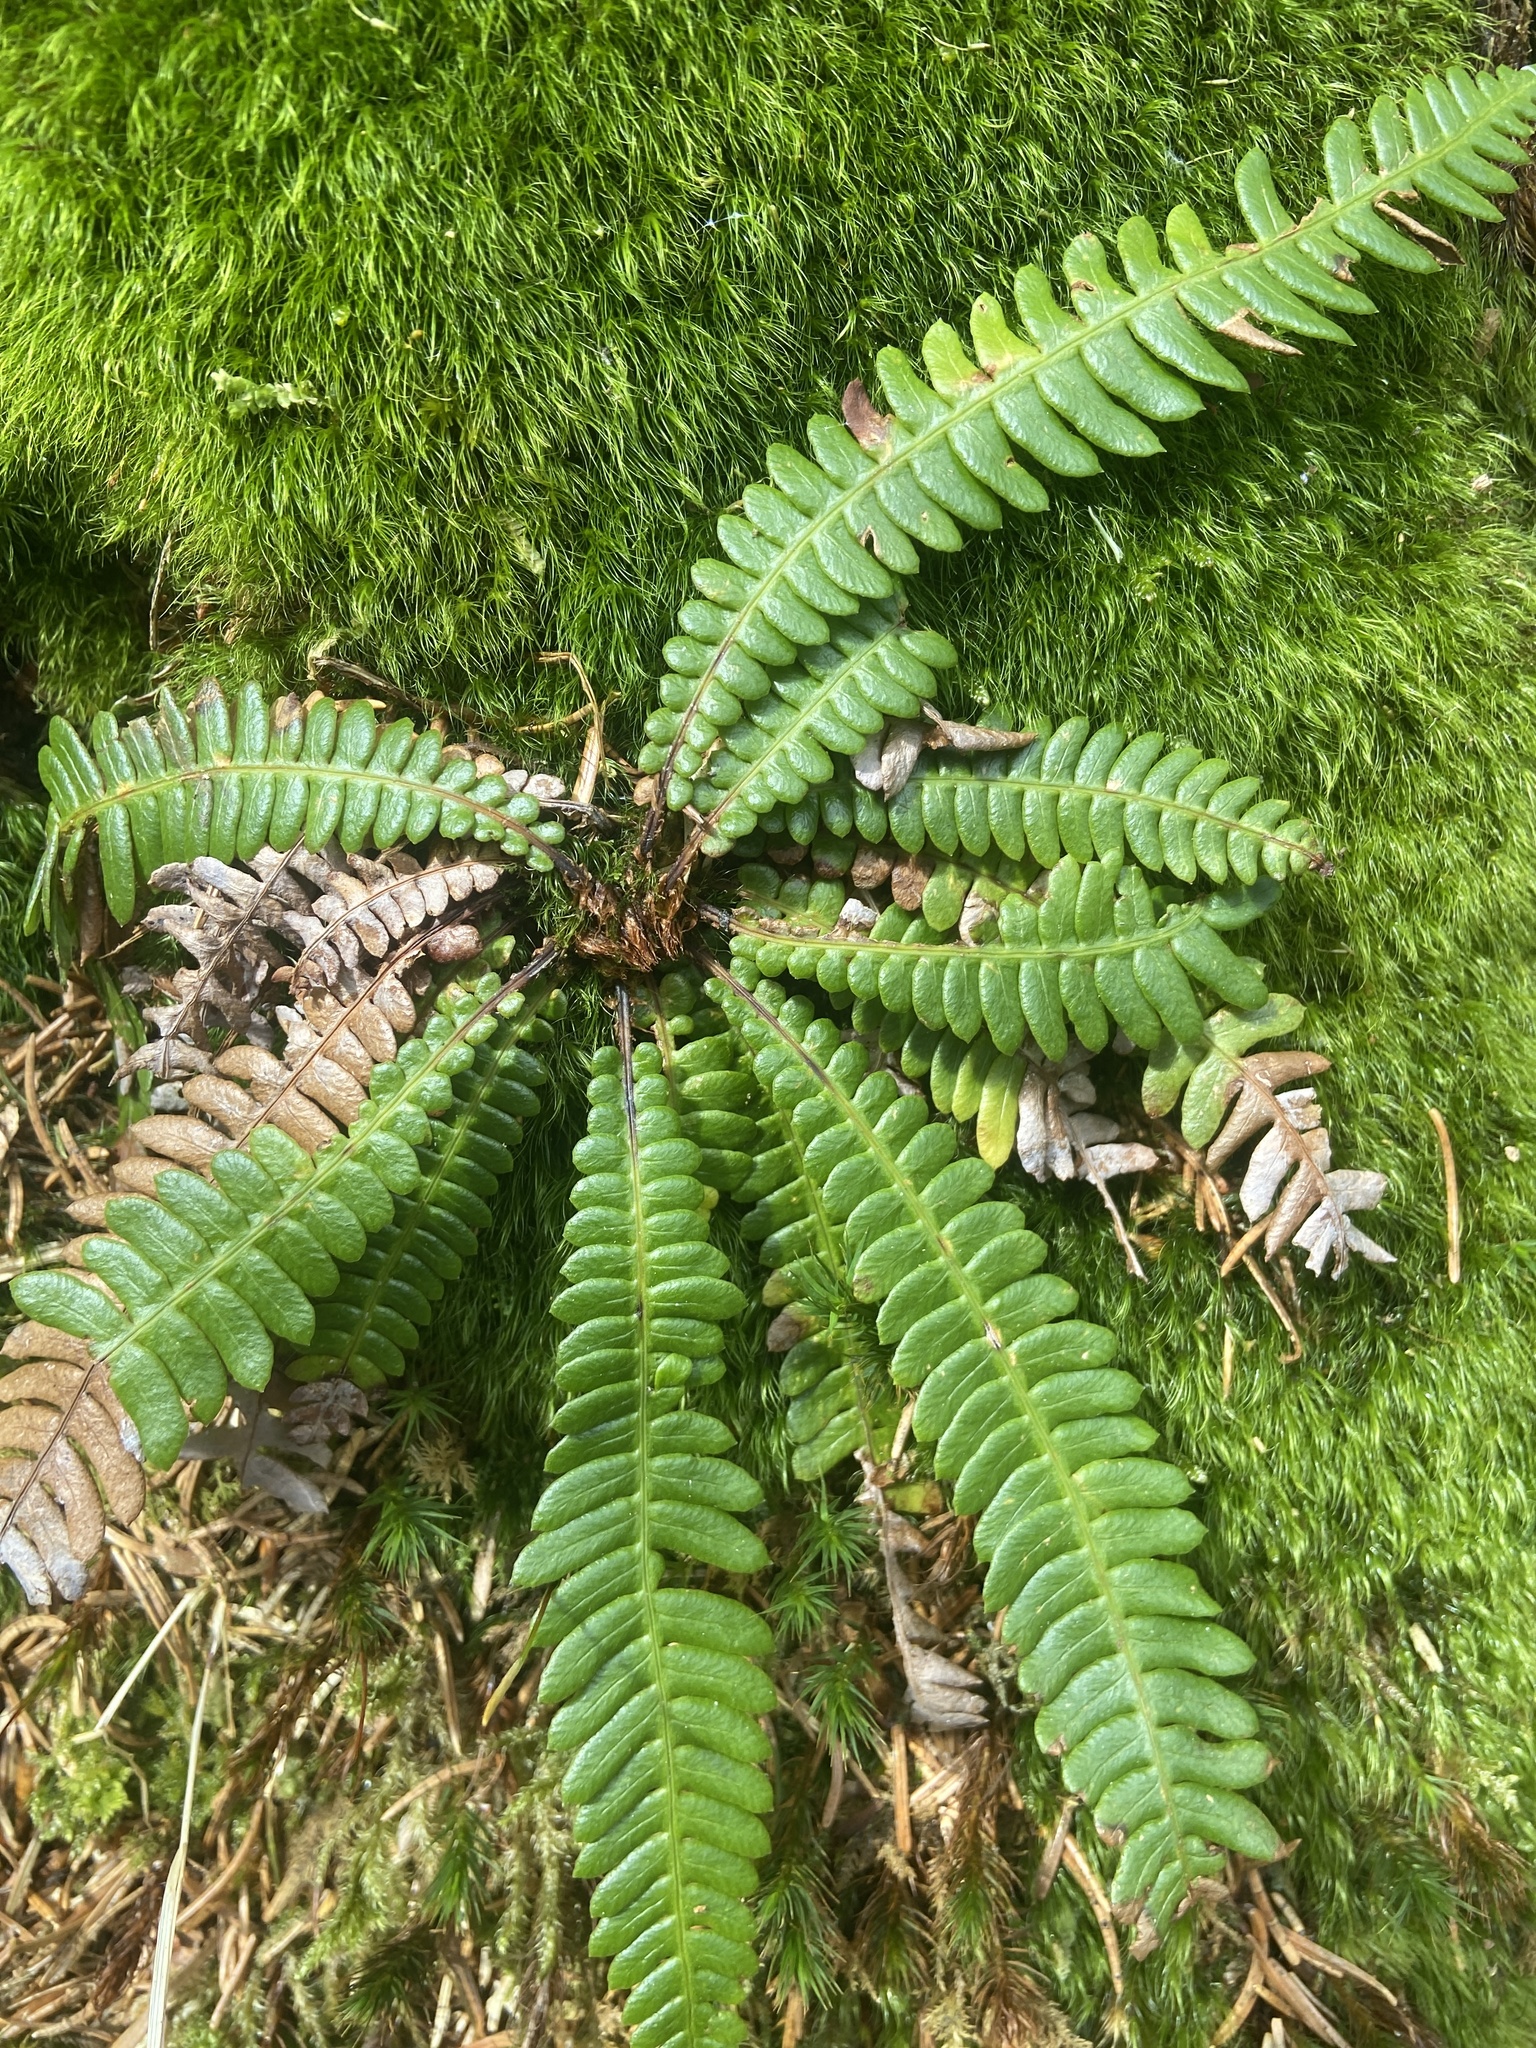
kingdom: Plantae
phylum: Tracheophyta
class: Polypodiopsida
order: Polypodiales
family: Blechnaceae
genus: Struthiopteris
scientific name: Struthiopteris spicant
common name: Deer fern
